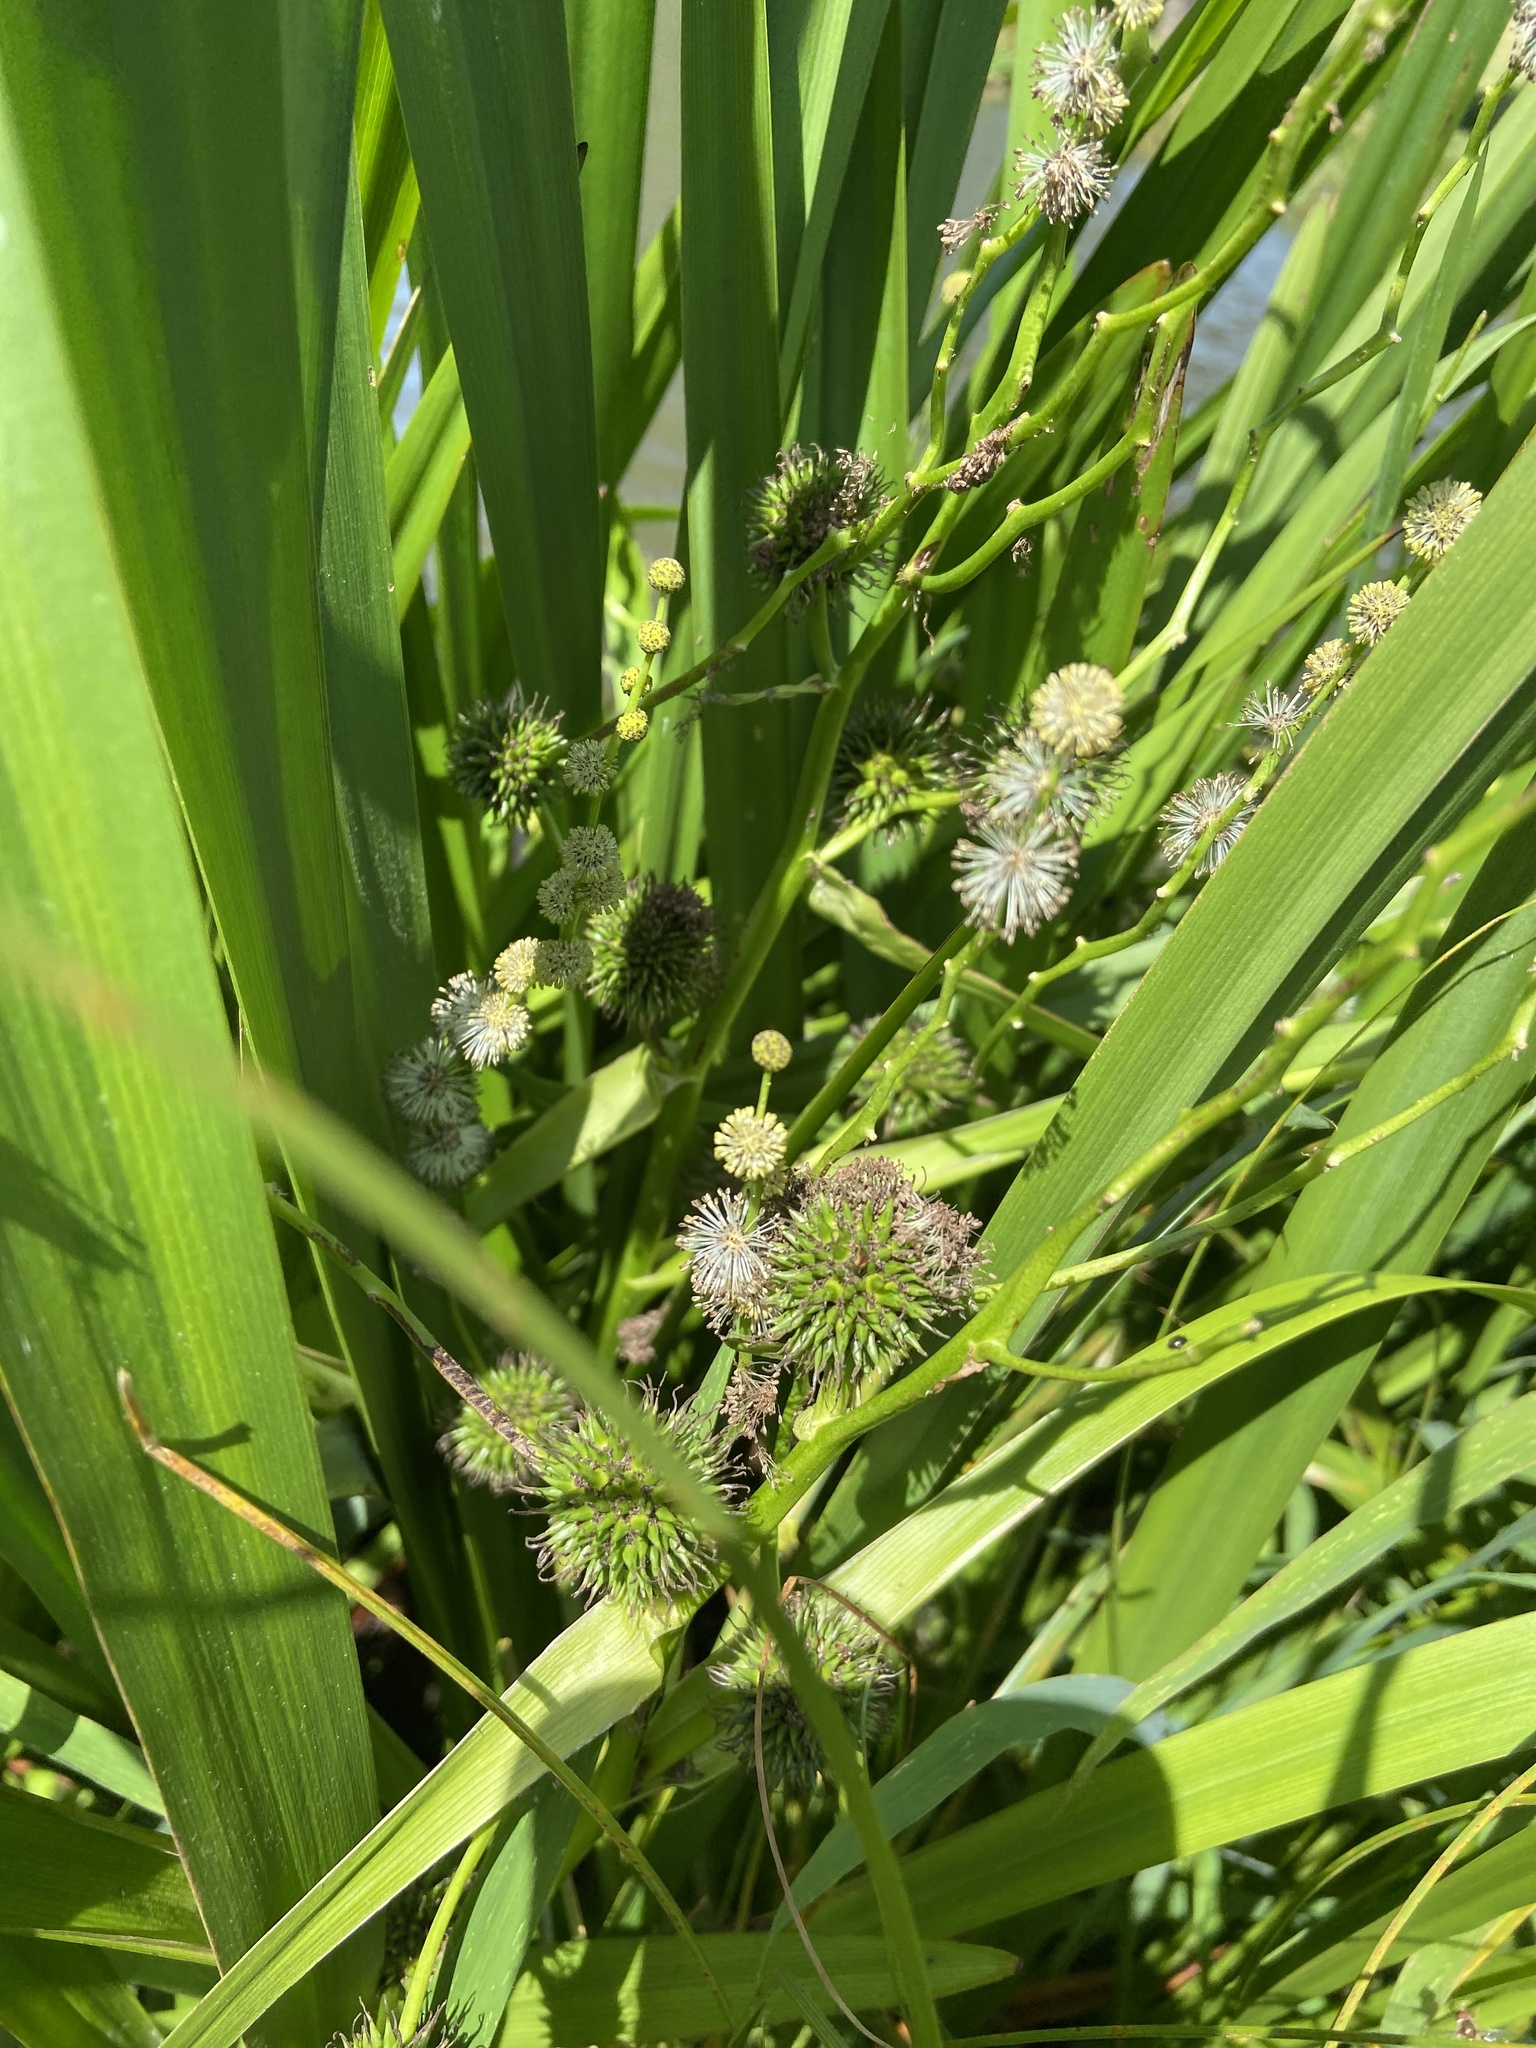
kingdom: Plantae
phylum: Tracheophyta
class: Liliopsida
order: Poales
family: Typhaceae
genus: Sparganium
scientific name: Sparganium erectum
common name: Branched bur-reed
